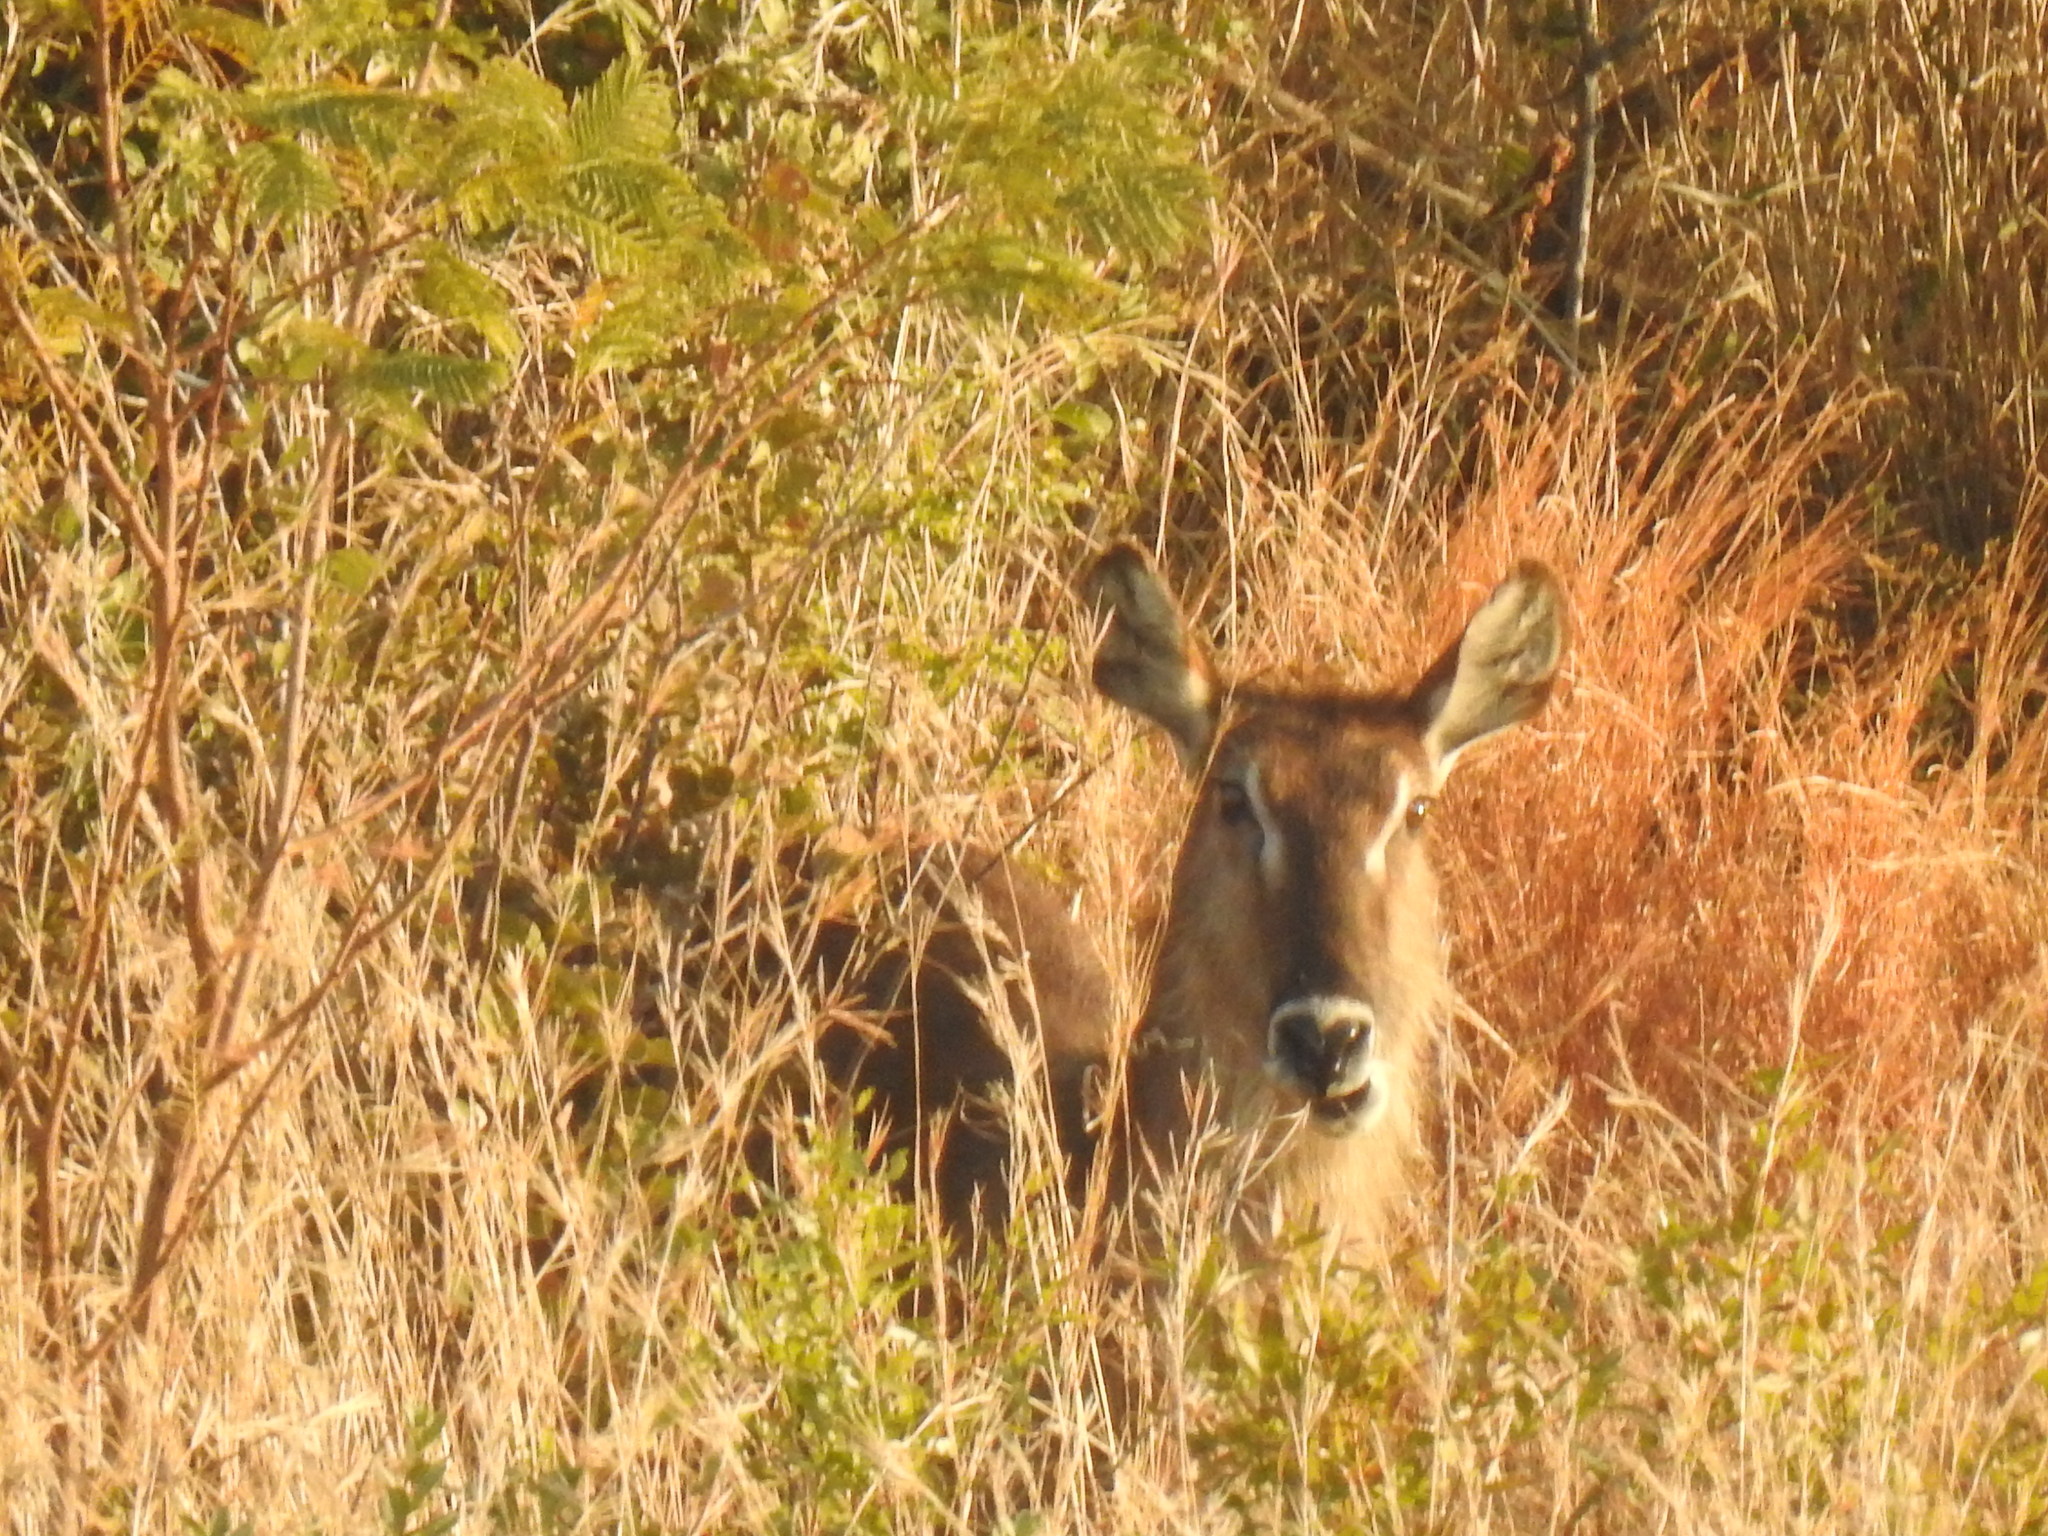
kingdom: Animalia
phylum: Chordata
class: Mammalia
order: Artiodactyla
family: Bovidae
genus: Kobus
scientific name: Kobus ellipsiprymnus
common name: Waterbuck
